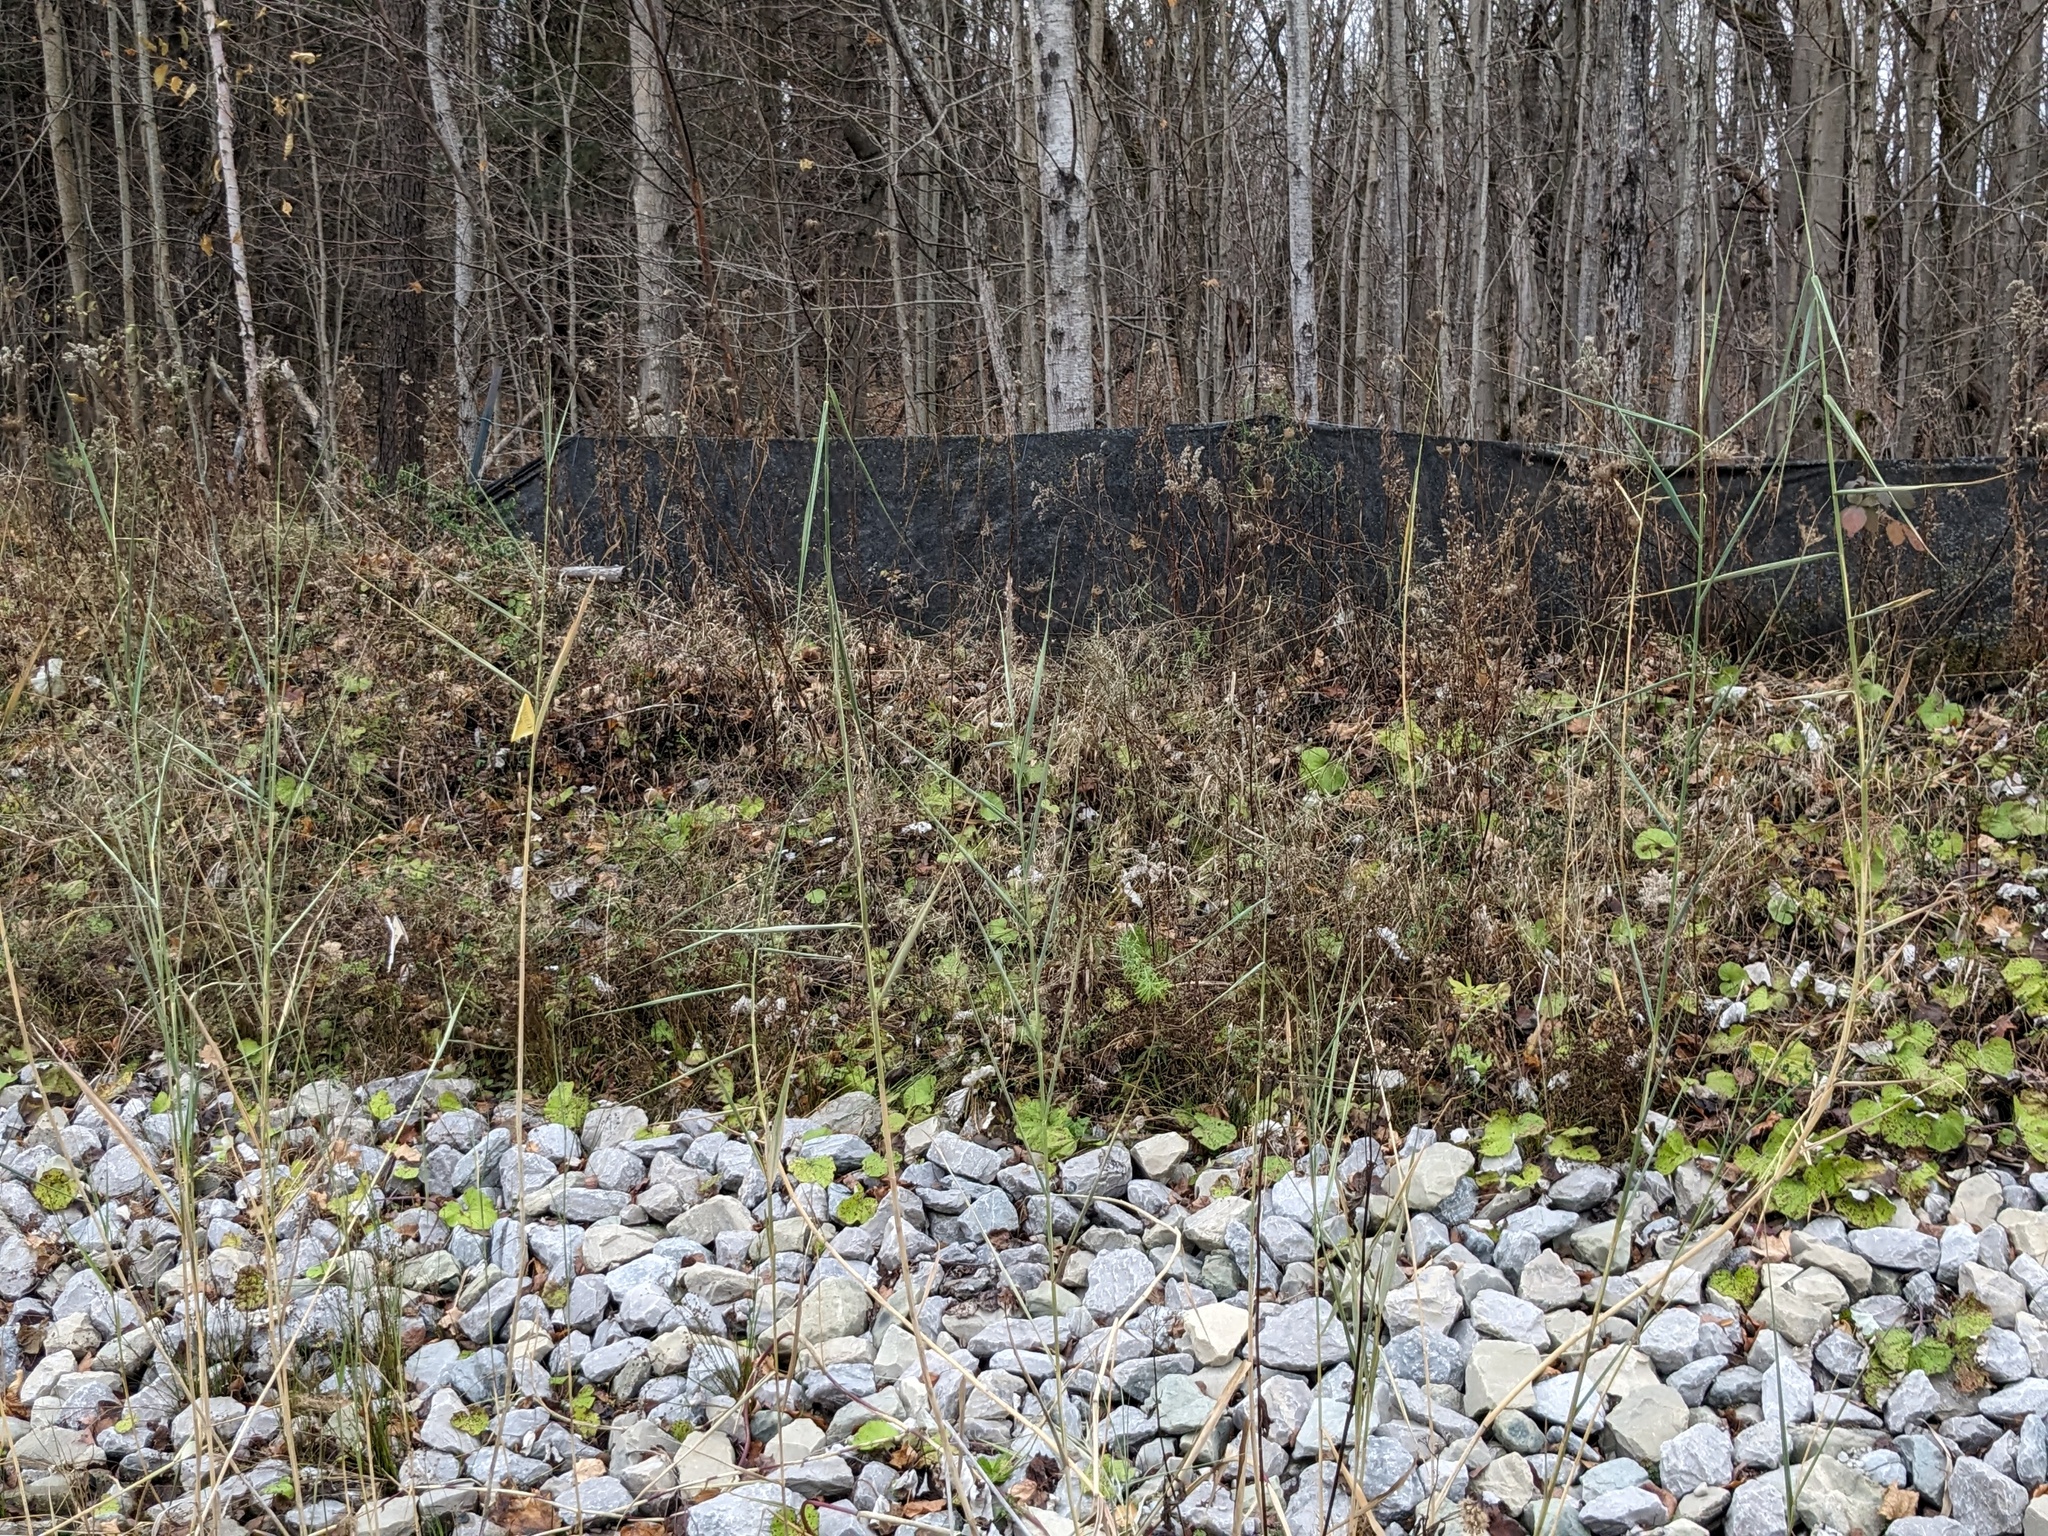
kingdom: Plantae
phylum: Tracheophyta
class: Liliopsida
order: Poales
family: Poaceae
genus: Phragmites
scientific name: Phragmites australis
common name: Common reed
